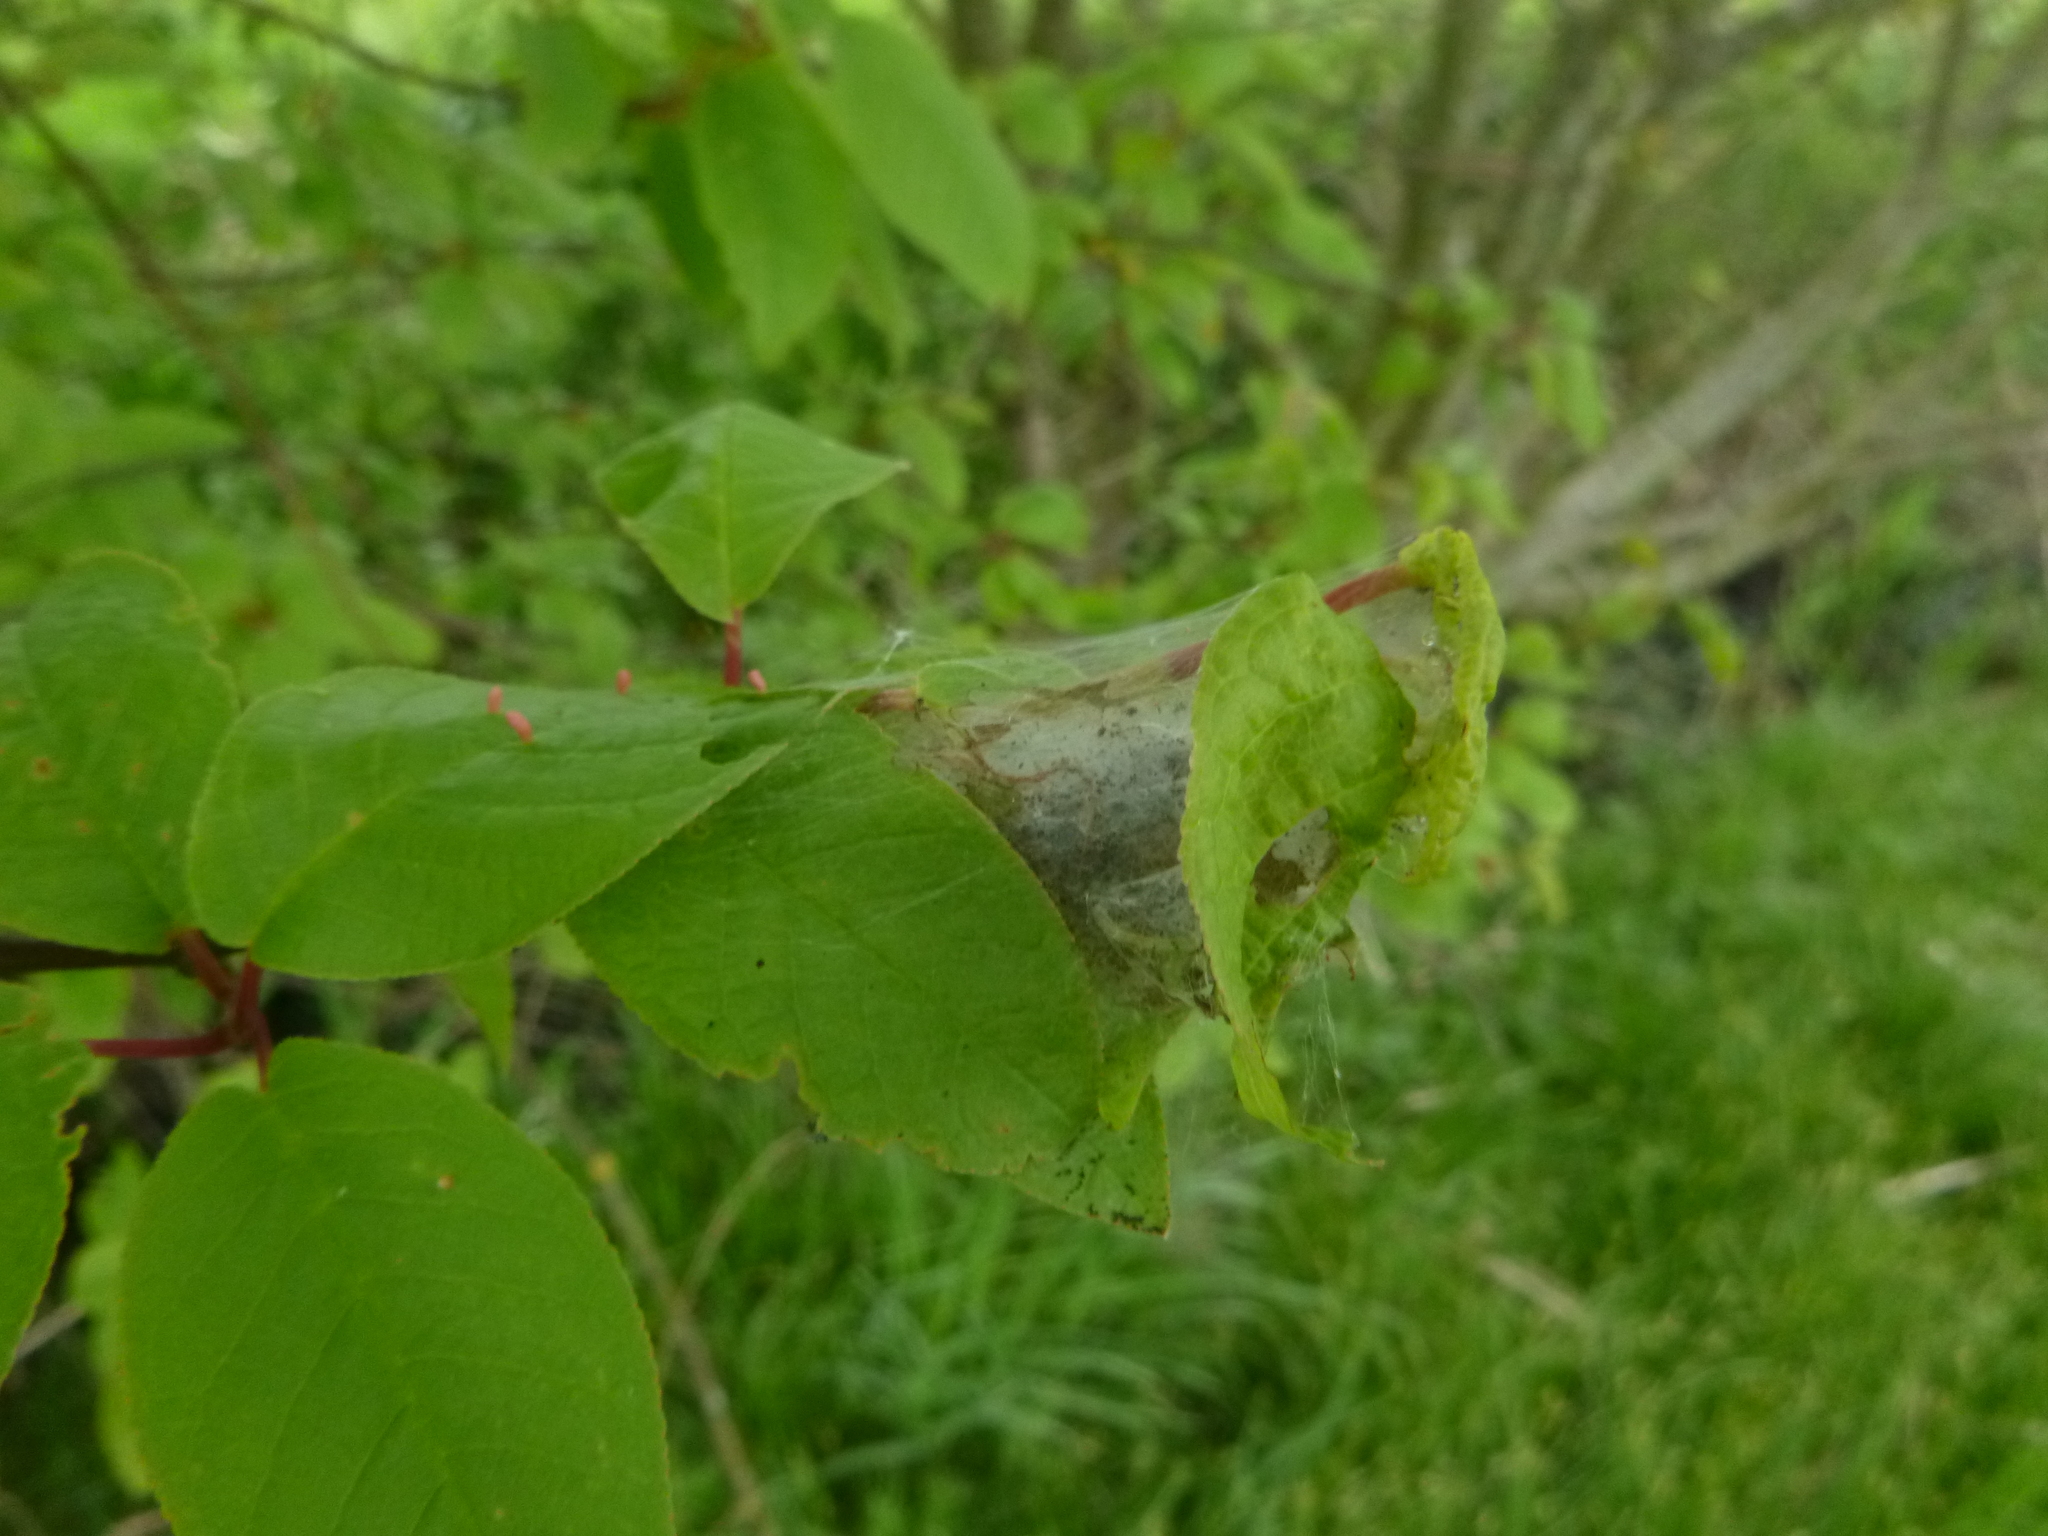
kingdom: Animalia
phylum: Arthropoda
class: Insecta
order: Lepidoptera
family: Yponomeutidae
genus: Yponomeuta
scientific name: Yponomeuta evonymella
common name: Bird-cherry ermine
